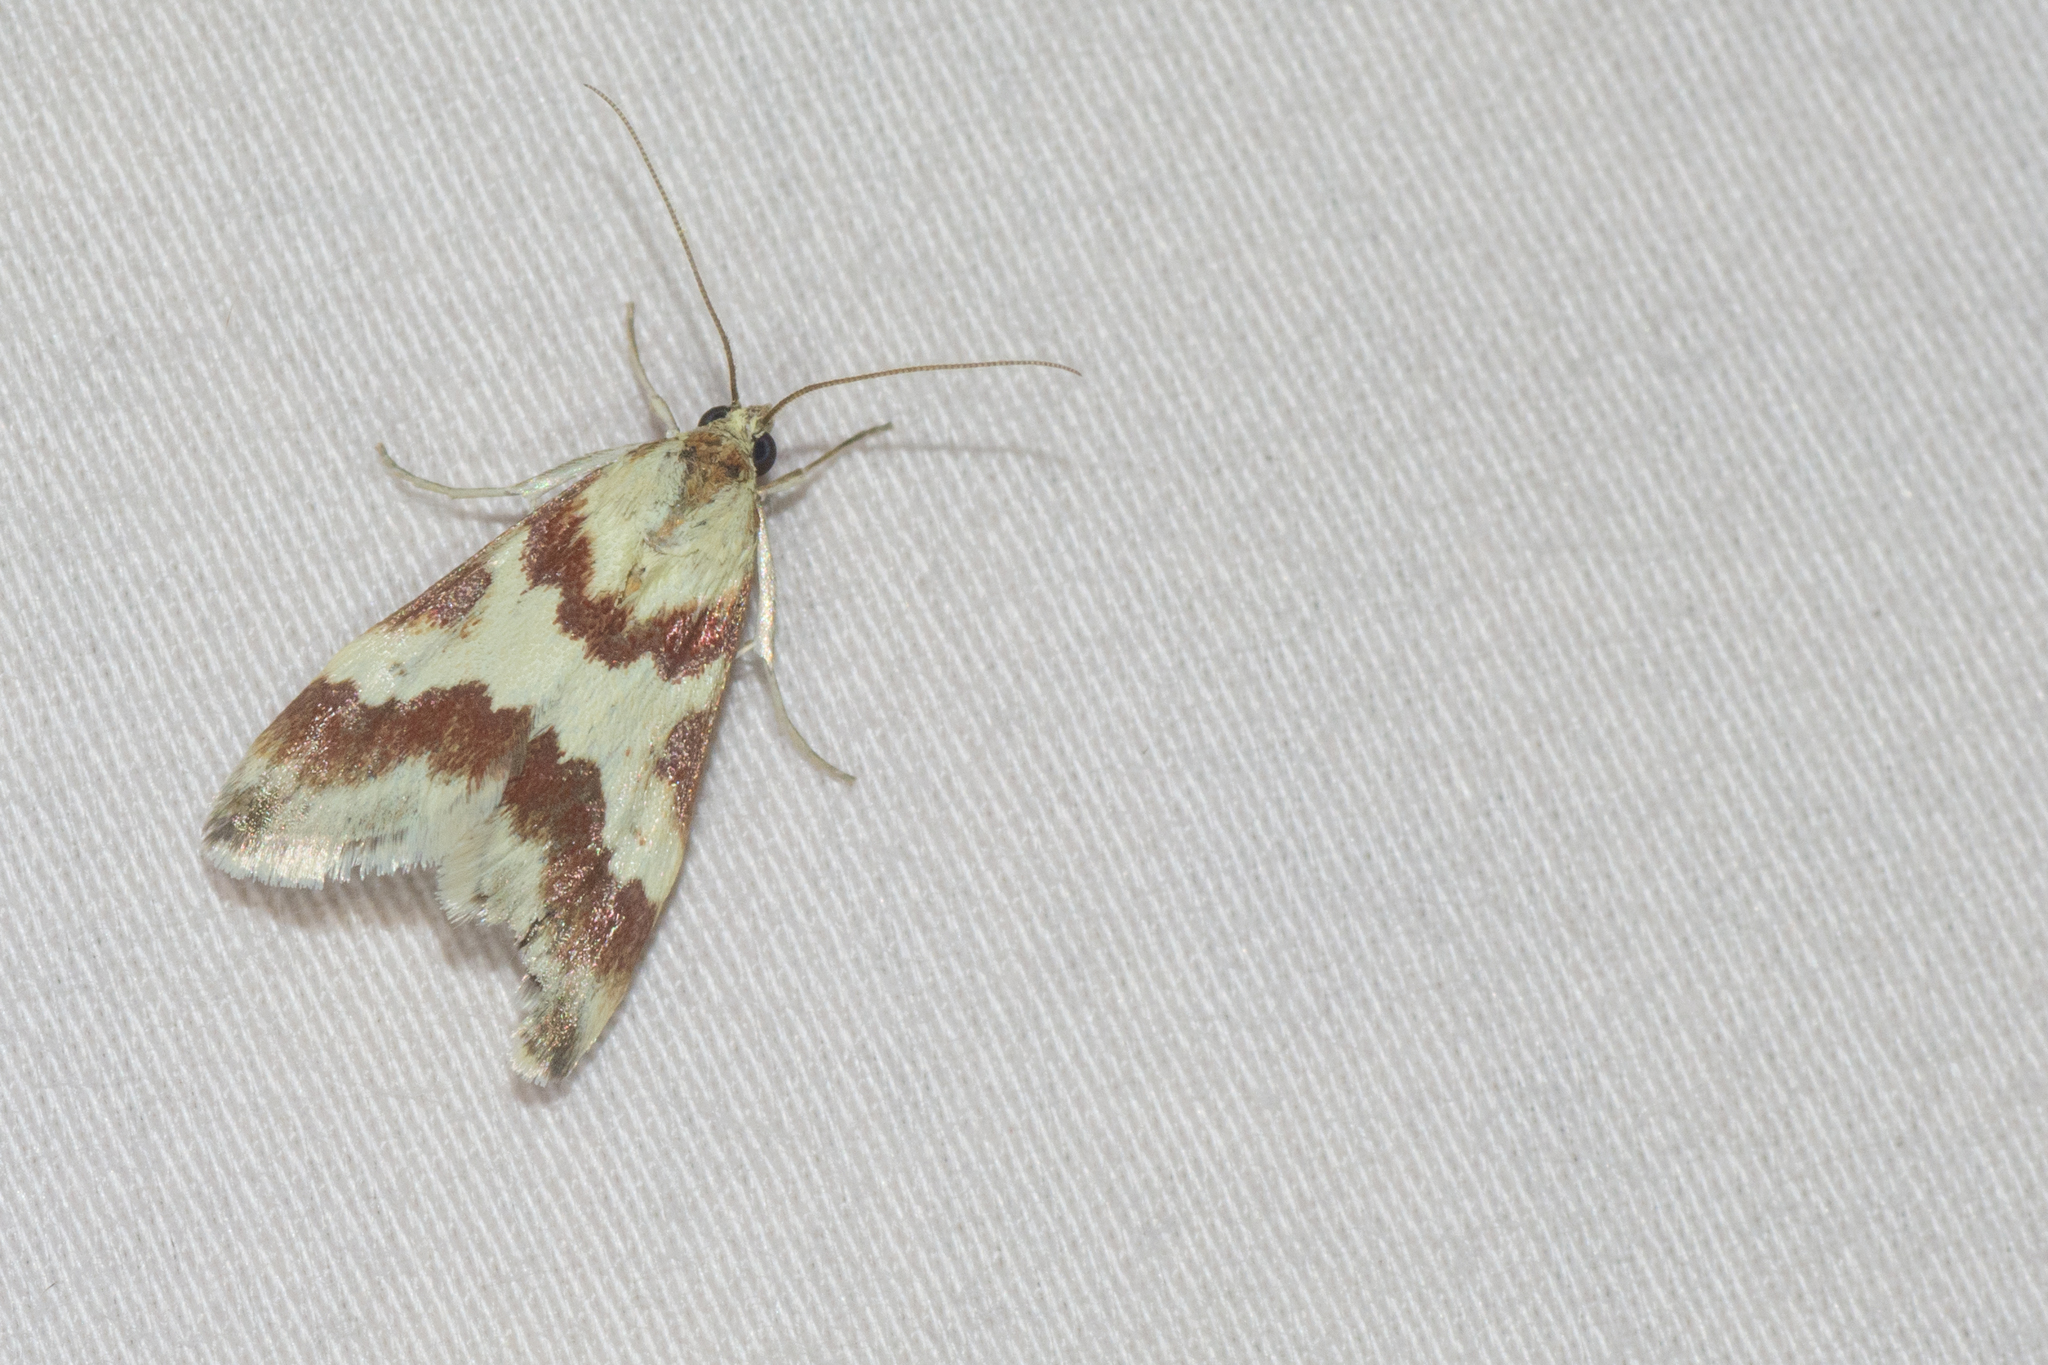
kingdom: Animalia
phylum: Arthropoda
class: Insecta
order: Lepidoptera
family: Crambidae
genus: Noctuelia
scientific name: Noctuelia Mimoschinia rufofascialis
